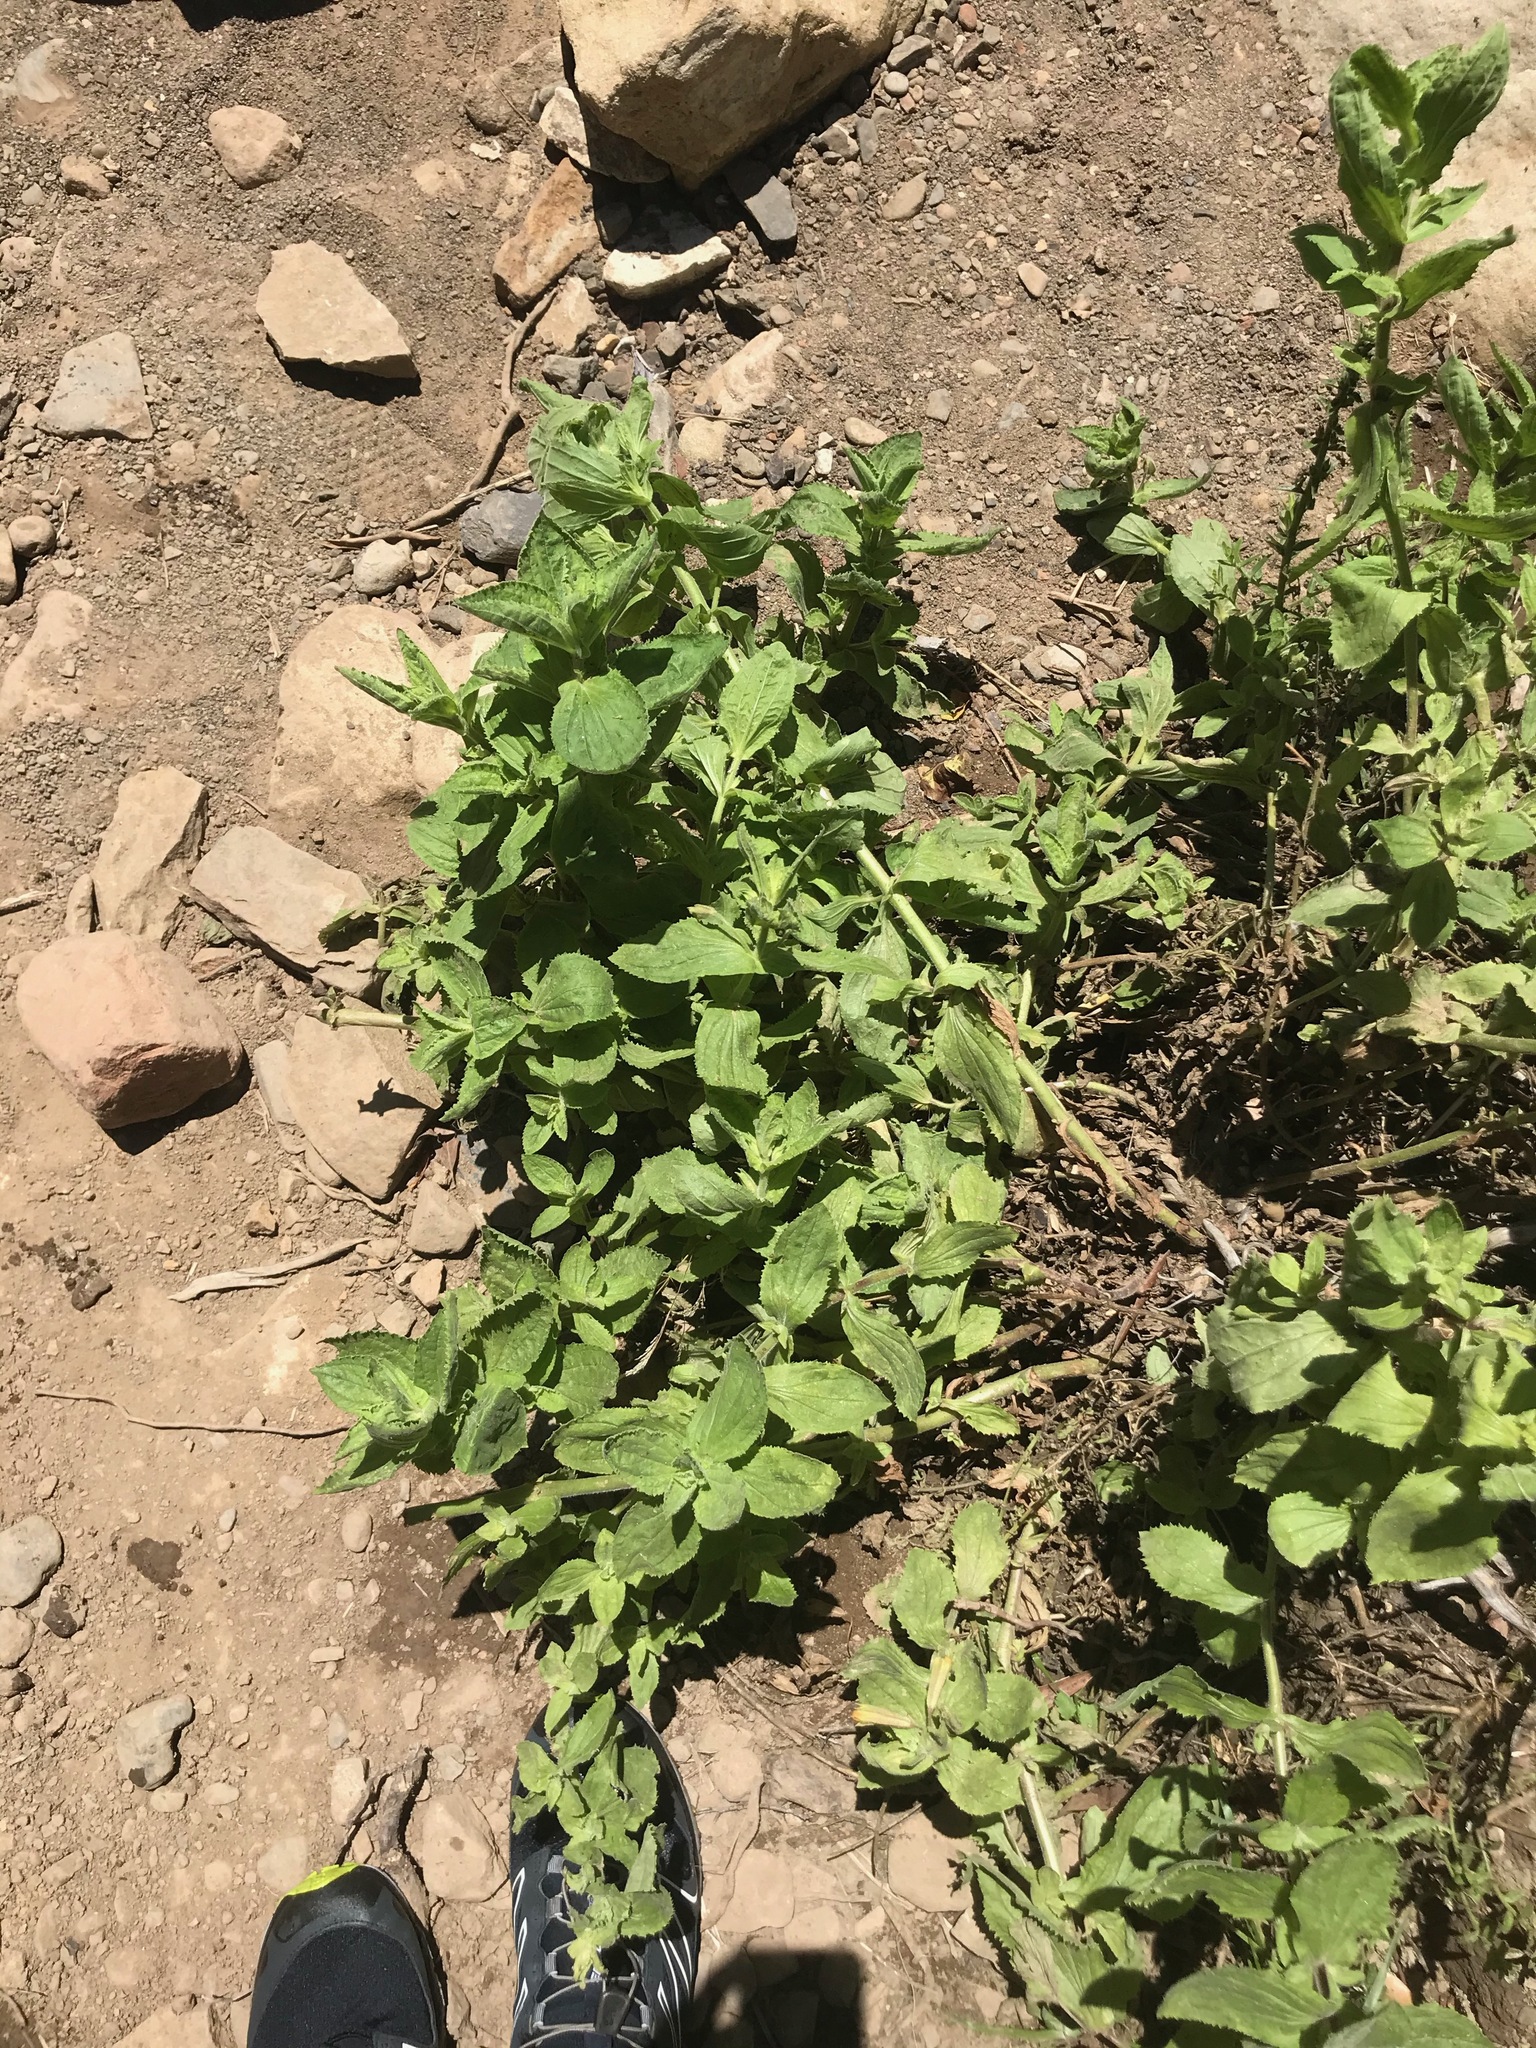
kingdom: Plantae
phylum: Tracheophyta
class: Magnoliopsida
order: Lamiales
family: Phrymaceae
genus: Erythranthe
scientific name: Erythranthe cardinalis
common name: Scarlet monkey-flower
